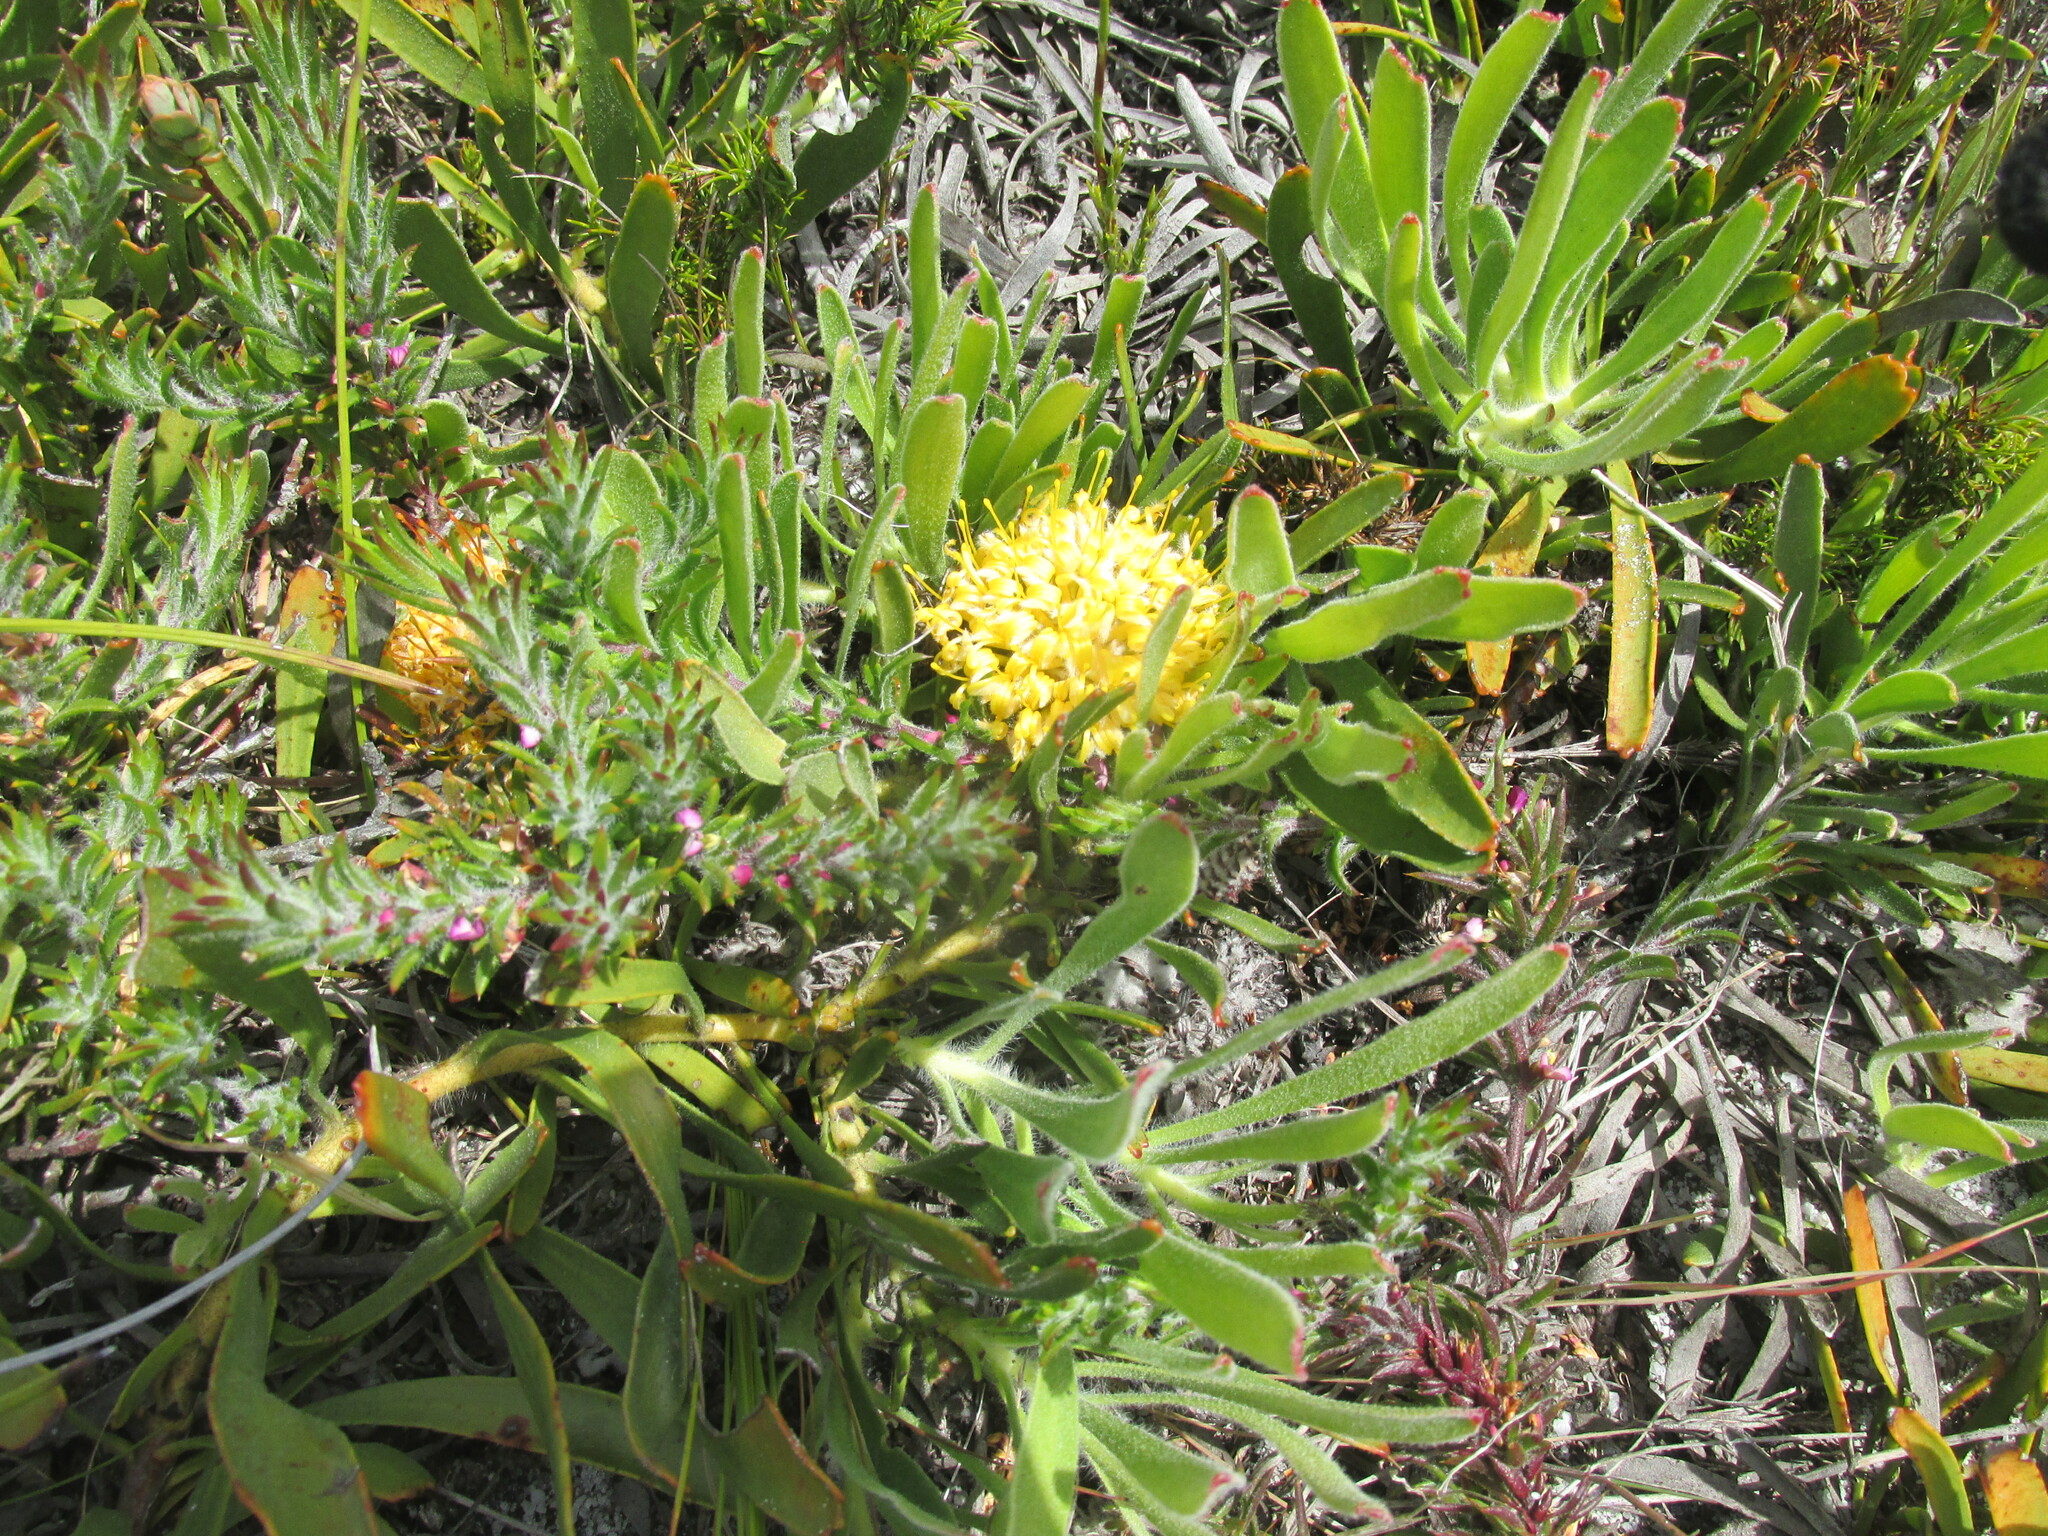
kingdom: Plantae
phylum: Tracheophyta
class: Magnoliopsida
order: Proteales
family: Proteaceae
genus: Leucospermum
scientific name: Leucospermum hypophyllocarpodendron
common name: Snakestem pincushion
